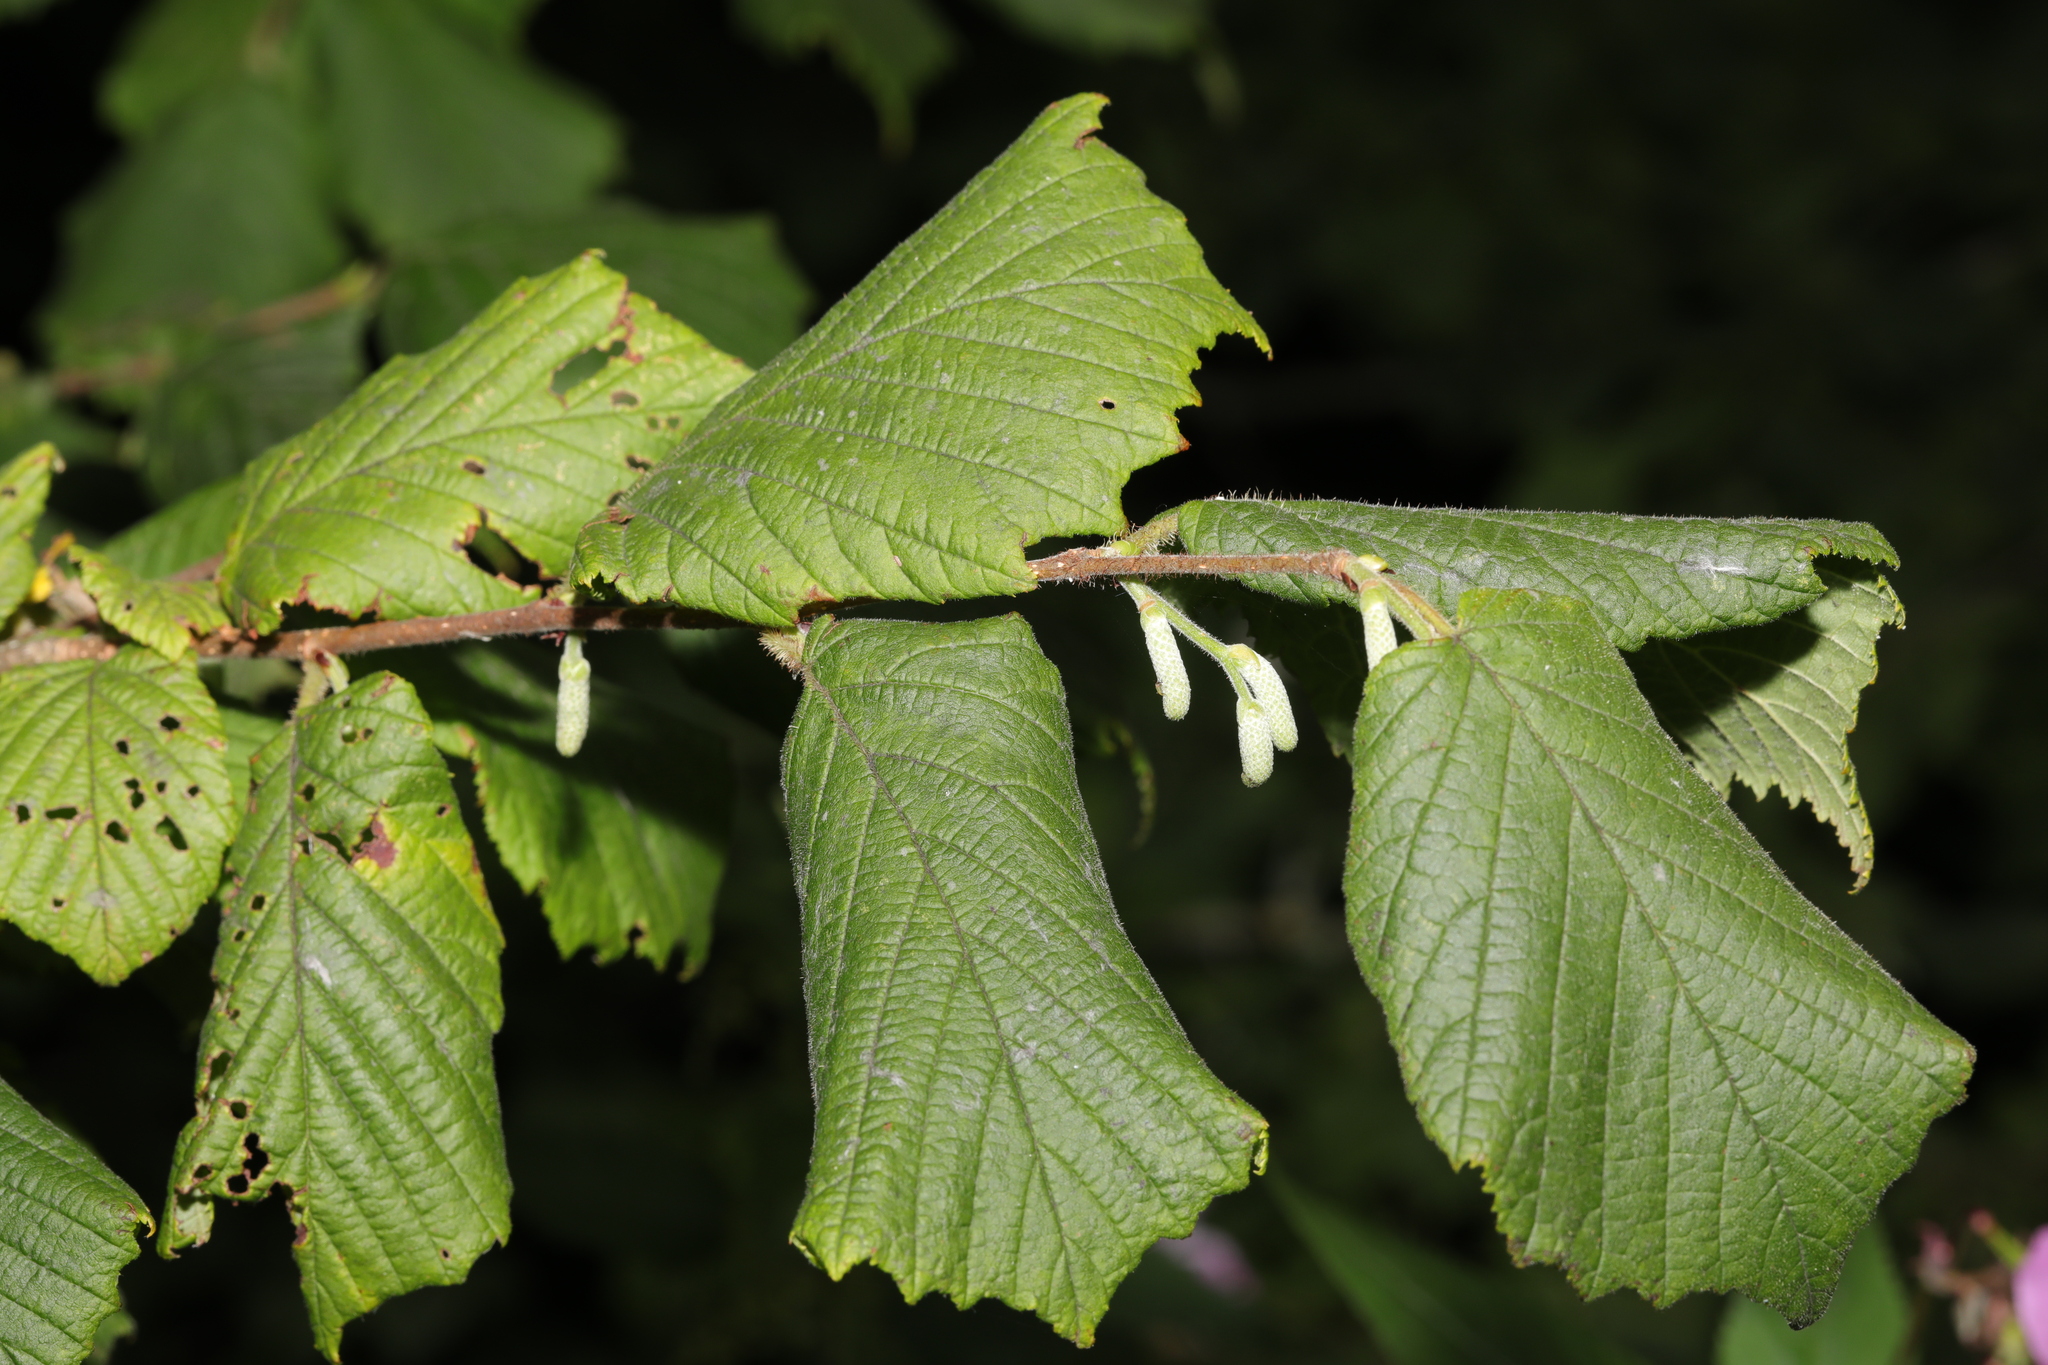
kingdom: Plantae
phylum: Tracheophyta
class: Magnoliopsida
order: Fagales
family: Betulaceae
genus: Corylus
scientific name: Corylus avellana
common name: European hazel
